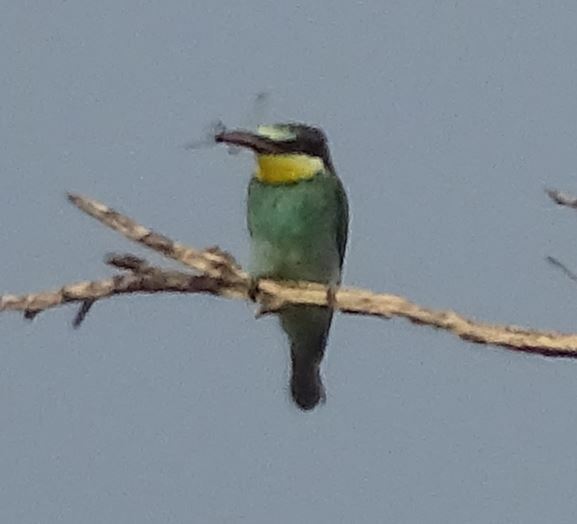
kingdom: Animalia
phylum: Chordata
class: Aves
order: Coraciiformes
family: Meropidae
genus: Merops
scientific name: Merops apiaster
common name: European bee-eater
